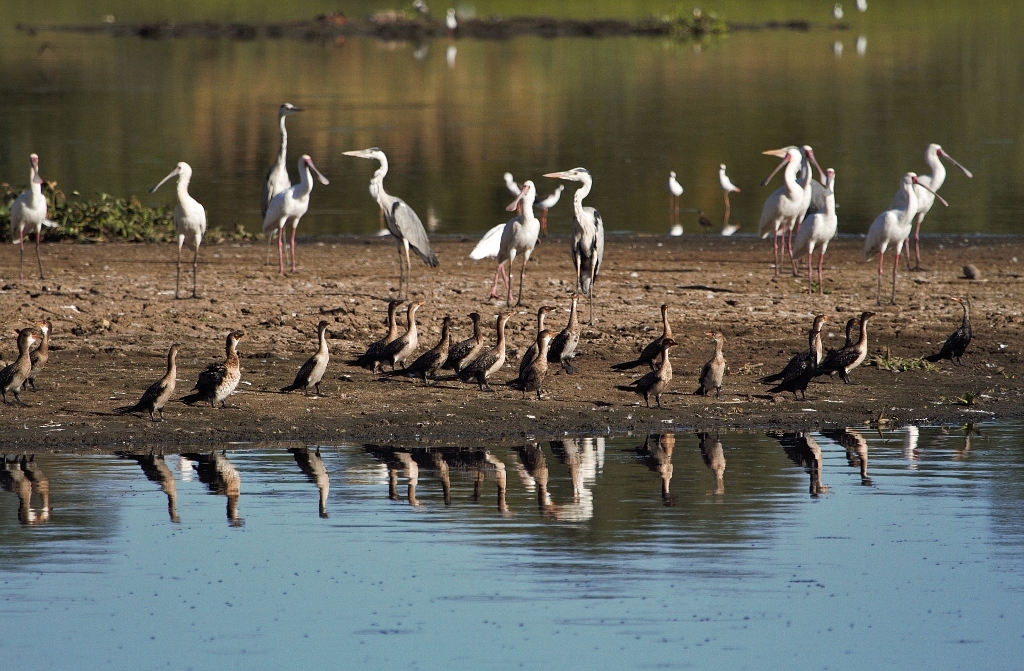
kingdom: Animalia
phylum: Chordata
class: Aves
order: Suliformes
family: Phalacrocoracidae
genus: Microcarbo
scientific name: Microcarbo africanus
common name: Long-tailed cormorant
